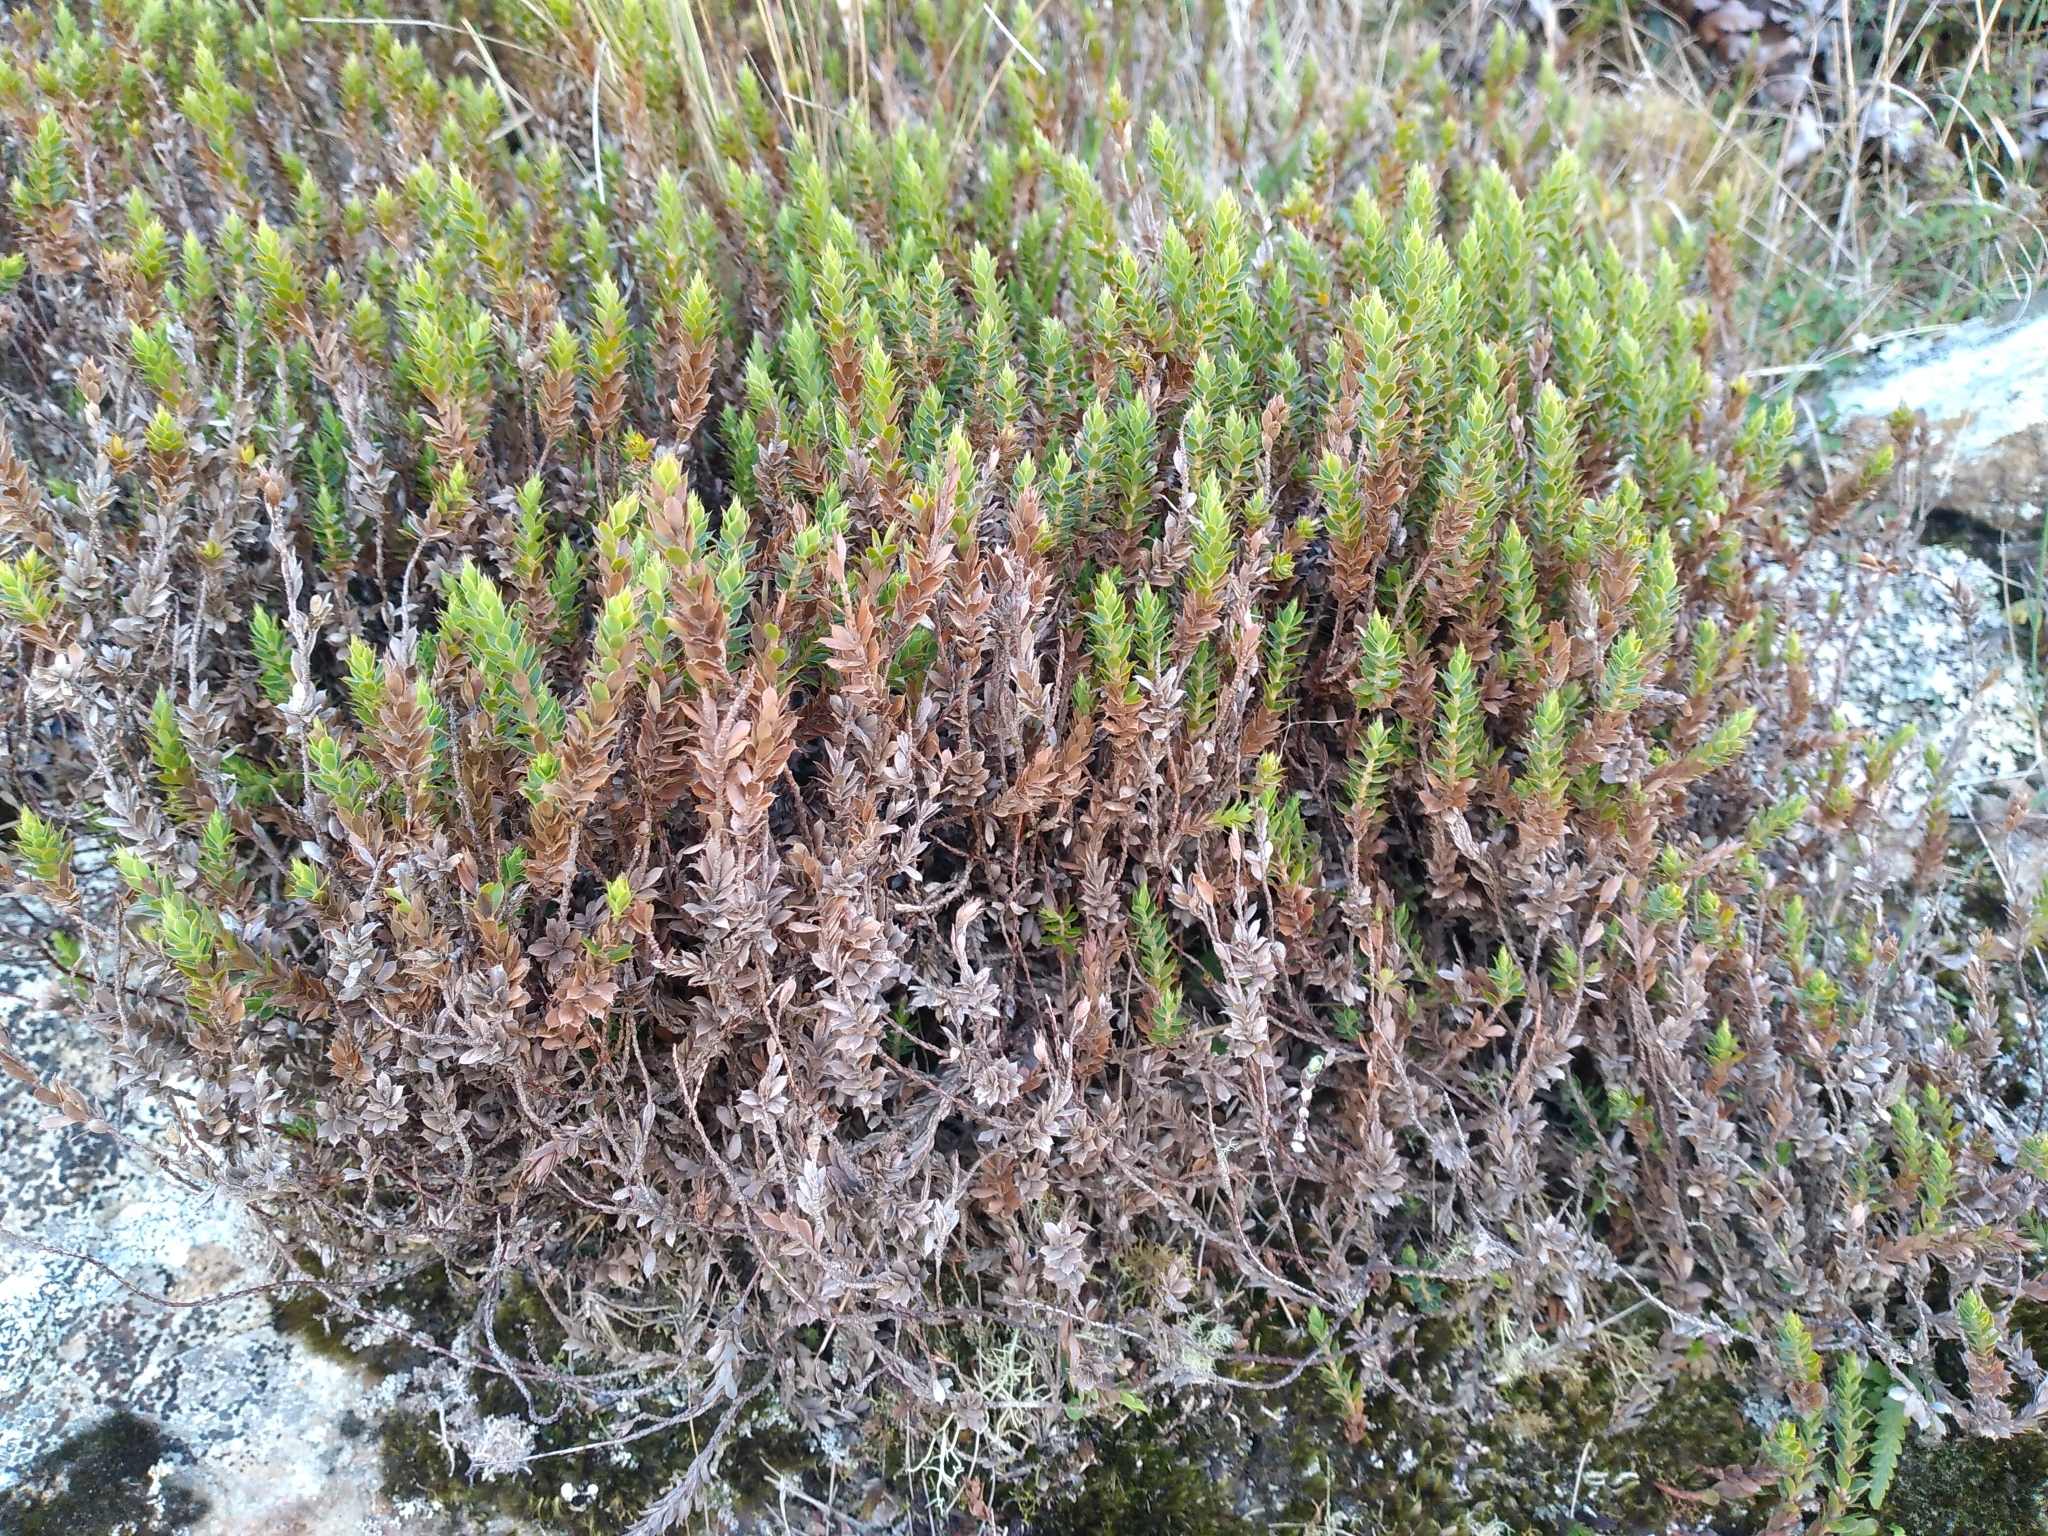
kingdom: Plantae
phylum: Tracheophyta
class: Magnoliopsida
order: Ericales
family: Ericaceae
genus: Styphelia
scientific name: Styphelia nesophila
